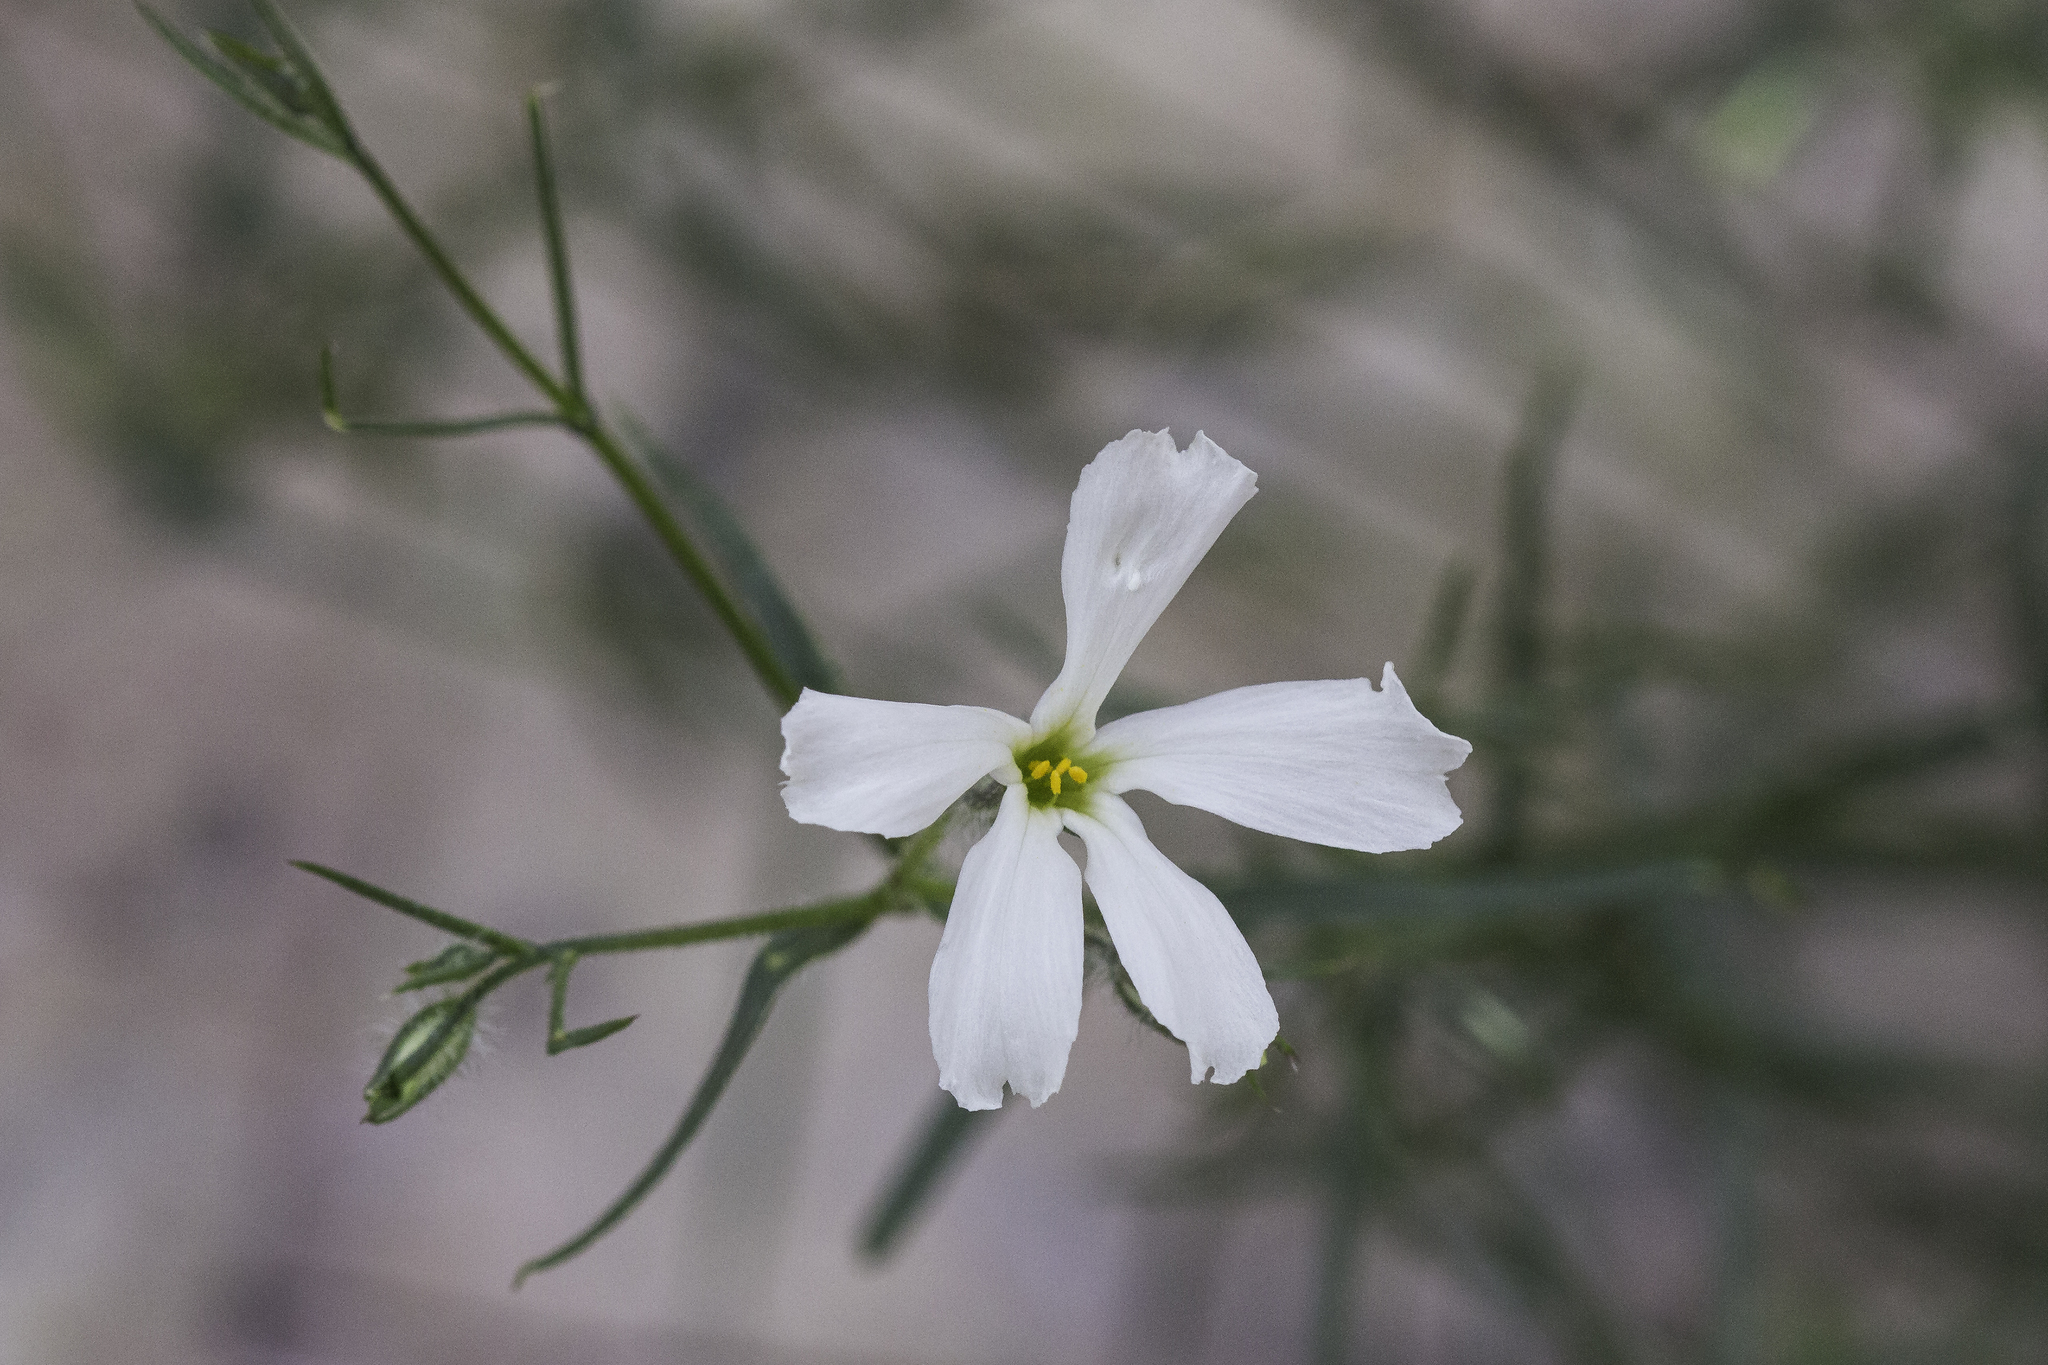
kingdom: Plantae
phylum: Tracheophyta
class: Magnoliopsida
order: Ericales
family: Polemoniaceae
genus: Phlox
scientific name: Phlox tenuifolia
